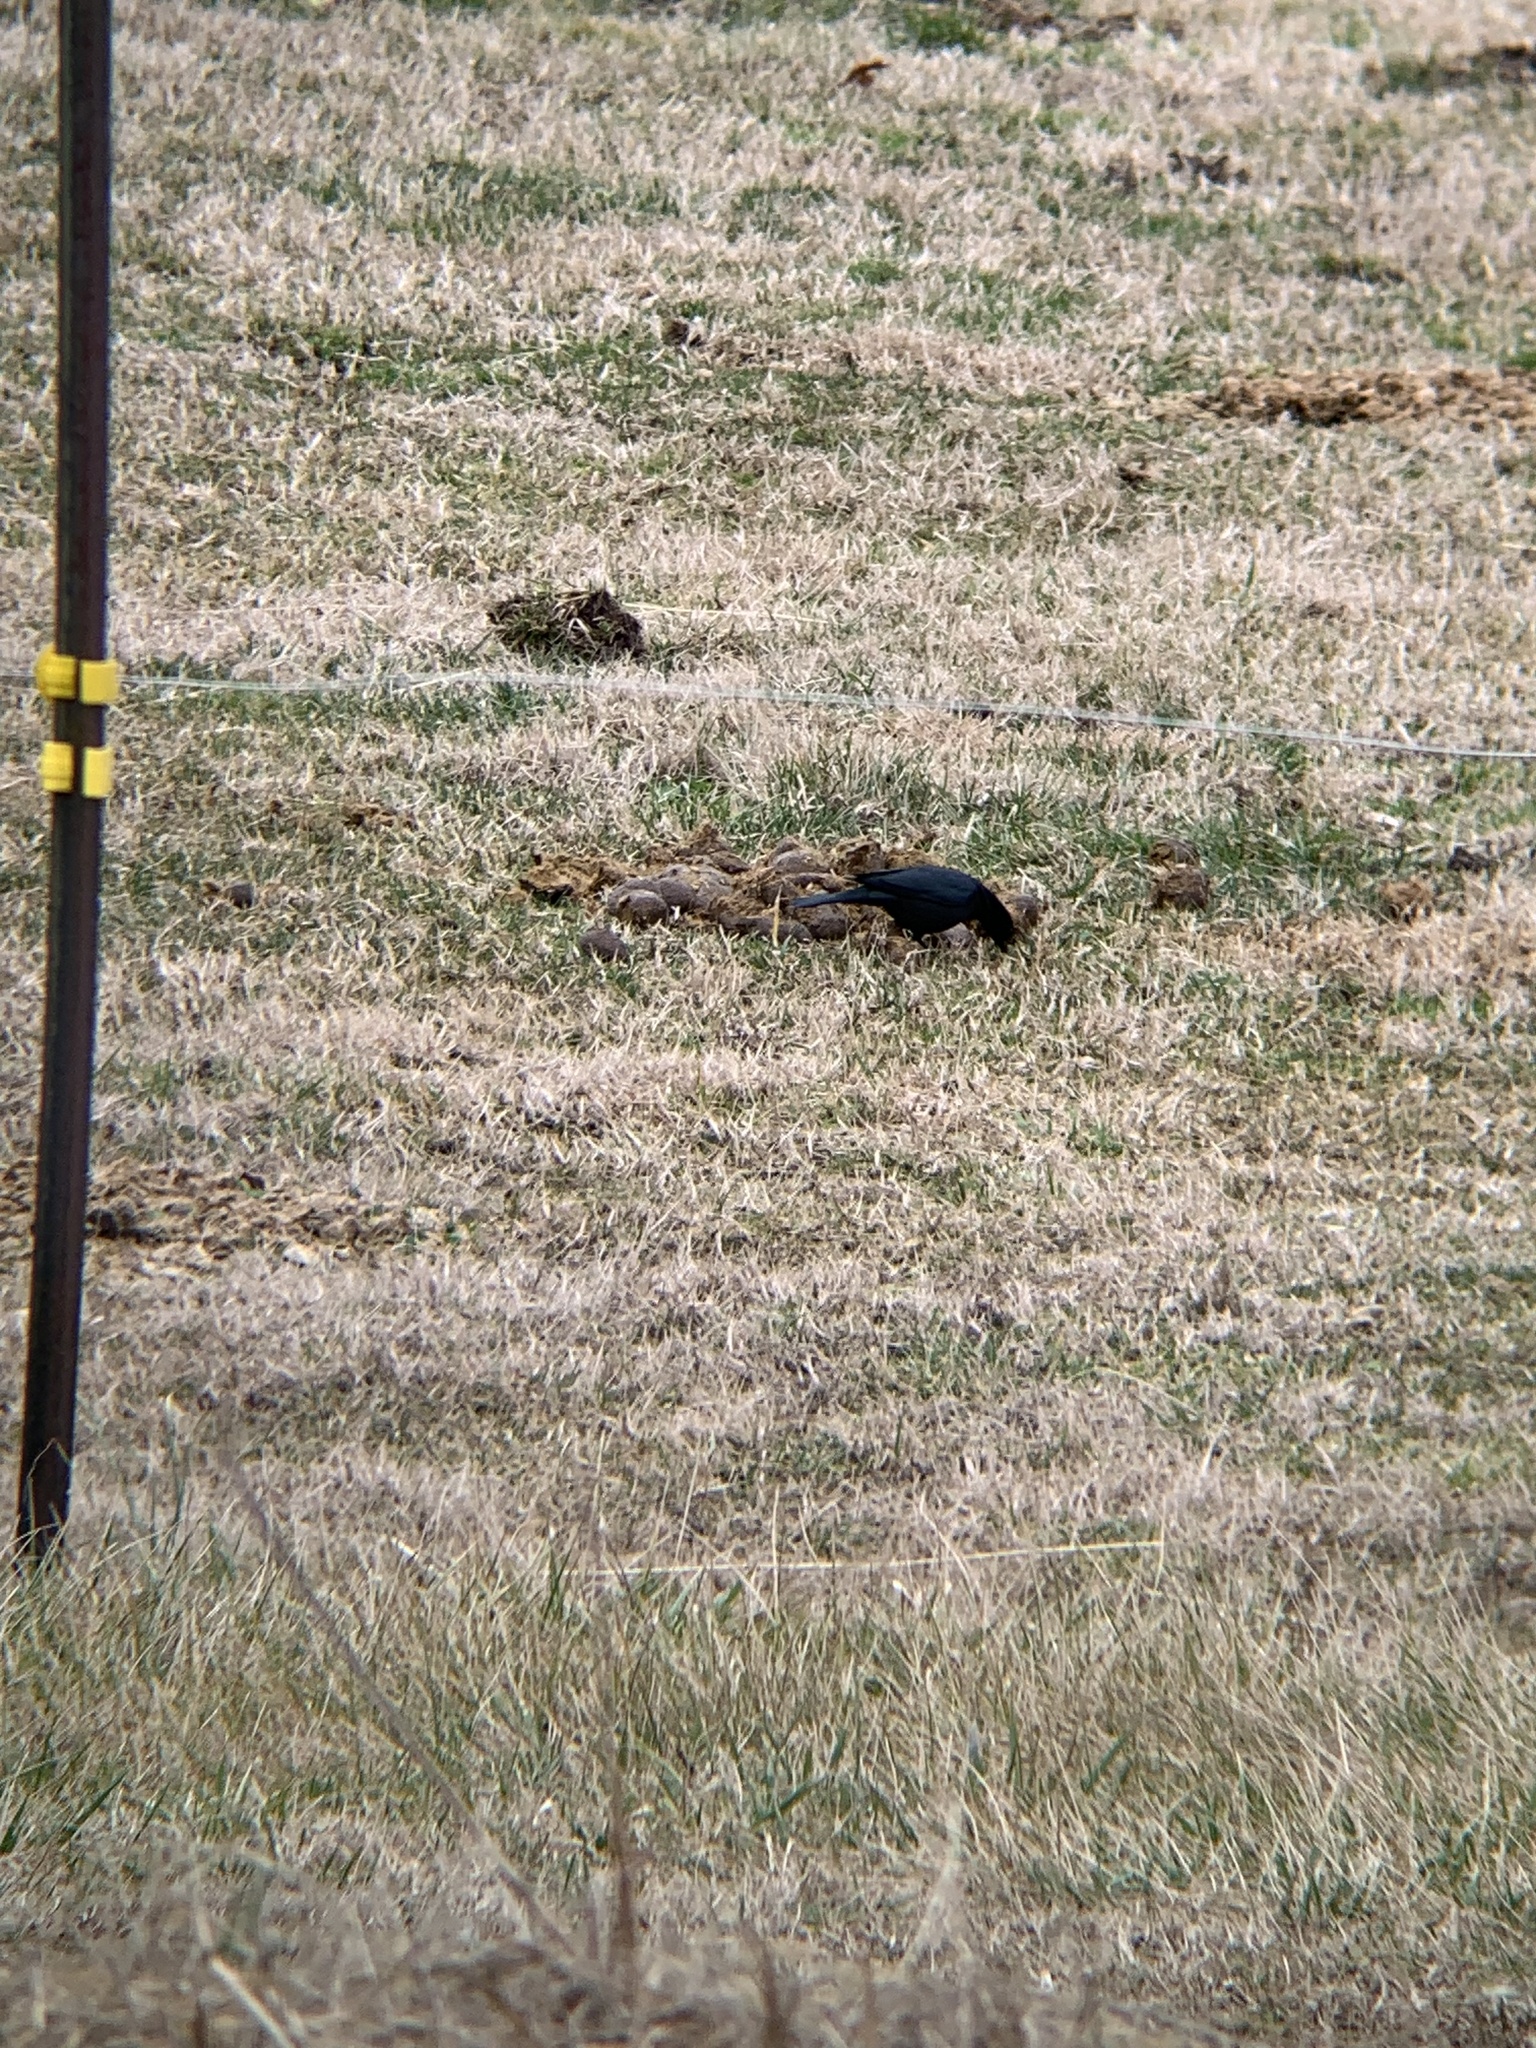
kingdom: Animalia
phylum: Chordata
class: Aves
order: Passeriformes
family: Icteridae
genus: Euphagus
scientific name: Euphagus cyanocephalus
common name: Brewer's blackbird
